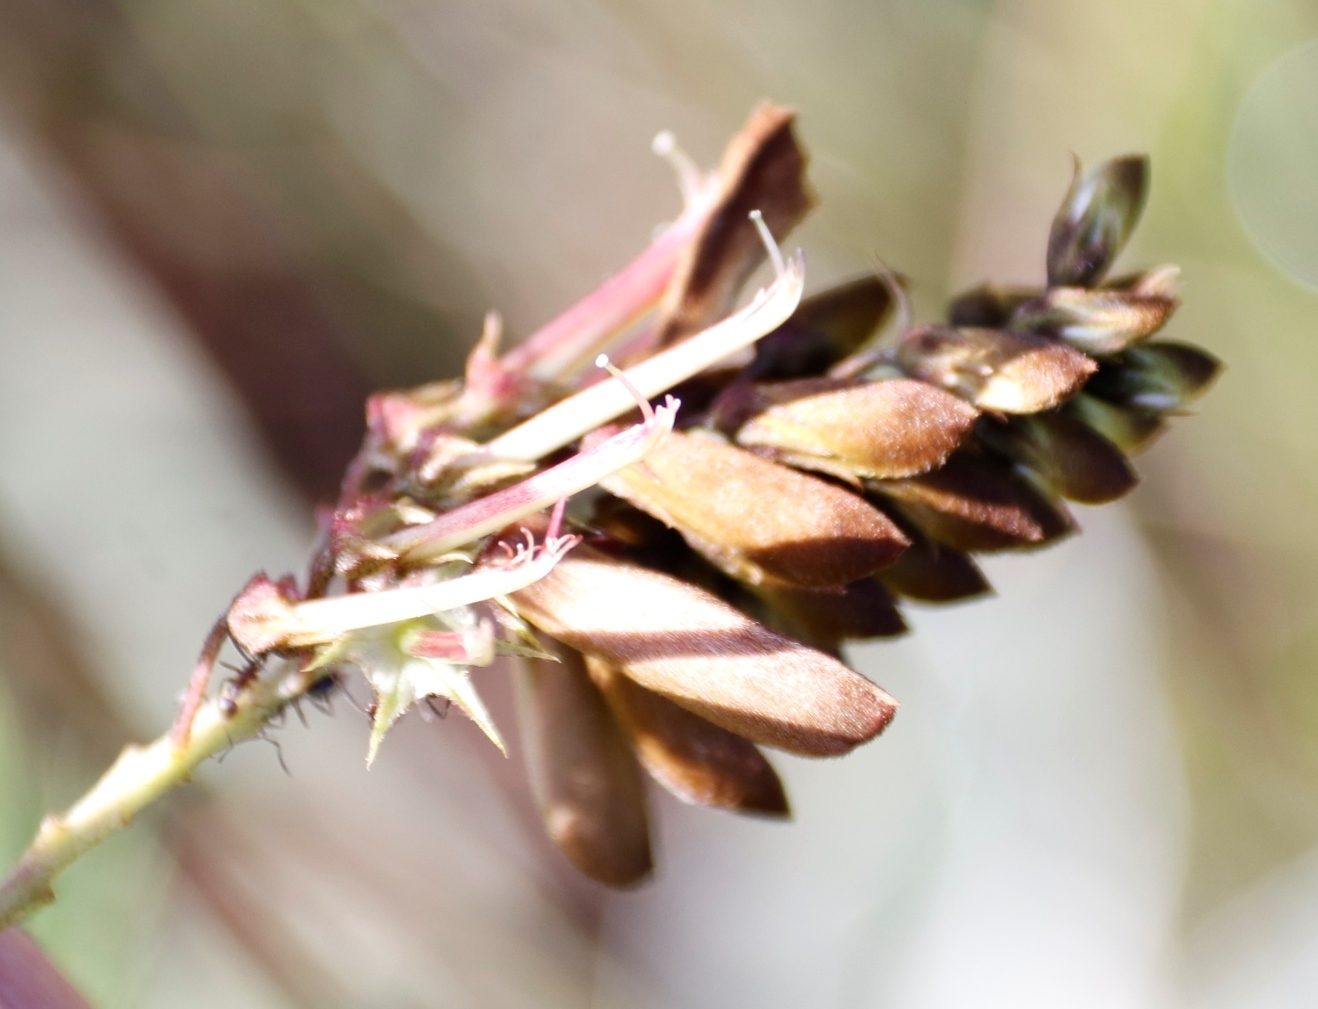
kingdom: Plantae
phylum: Tracheophyta
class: Magnoliopsida
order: Fabales
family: Fabaceae
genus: Indigofera
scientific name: Indigofera rostrata
